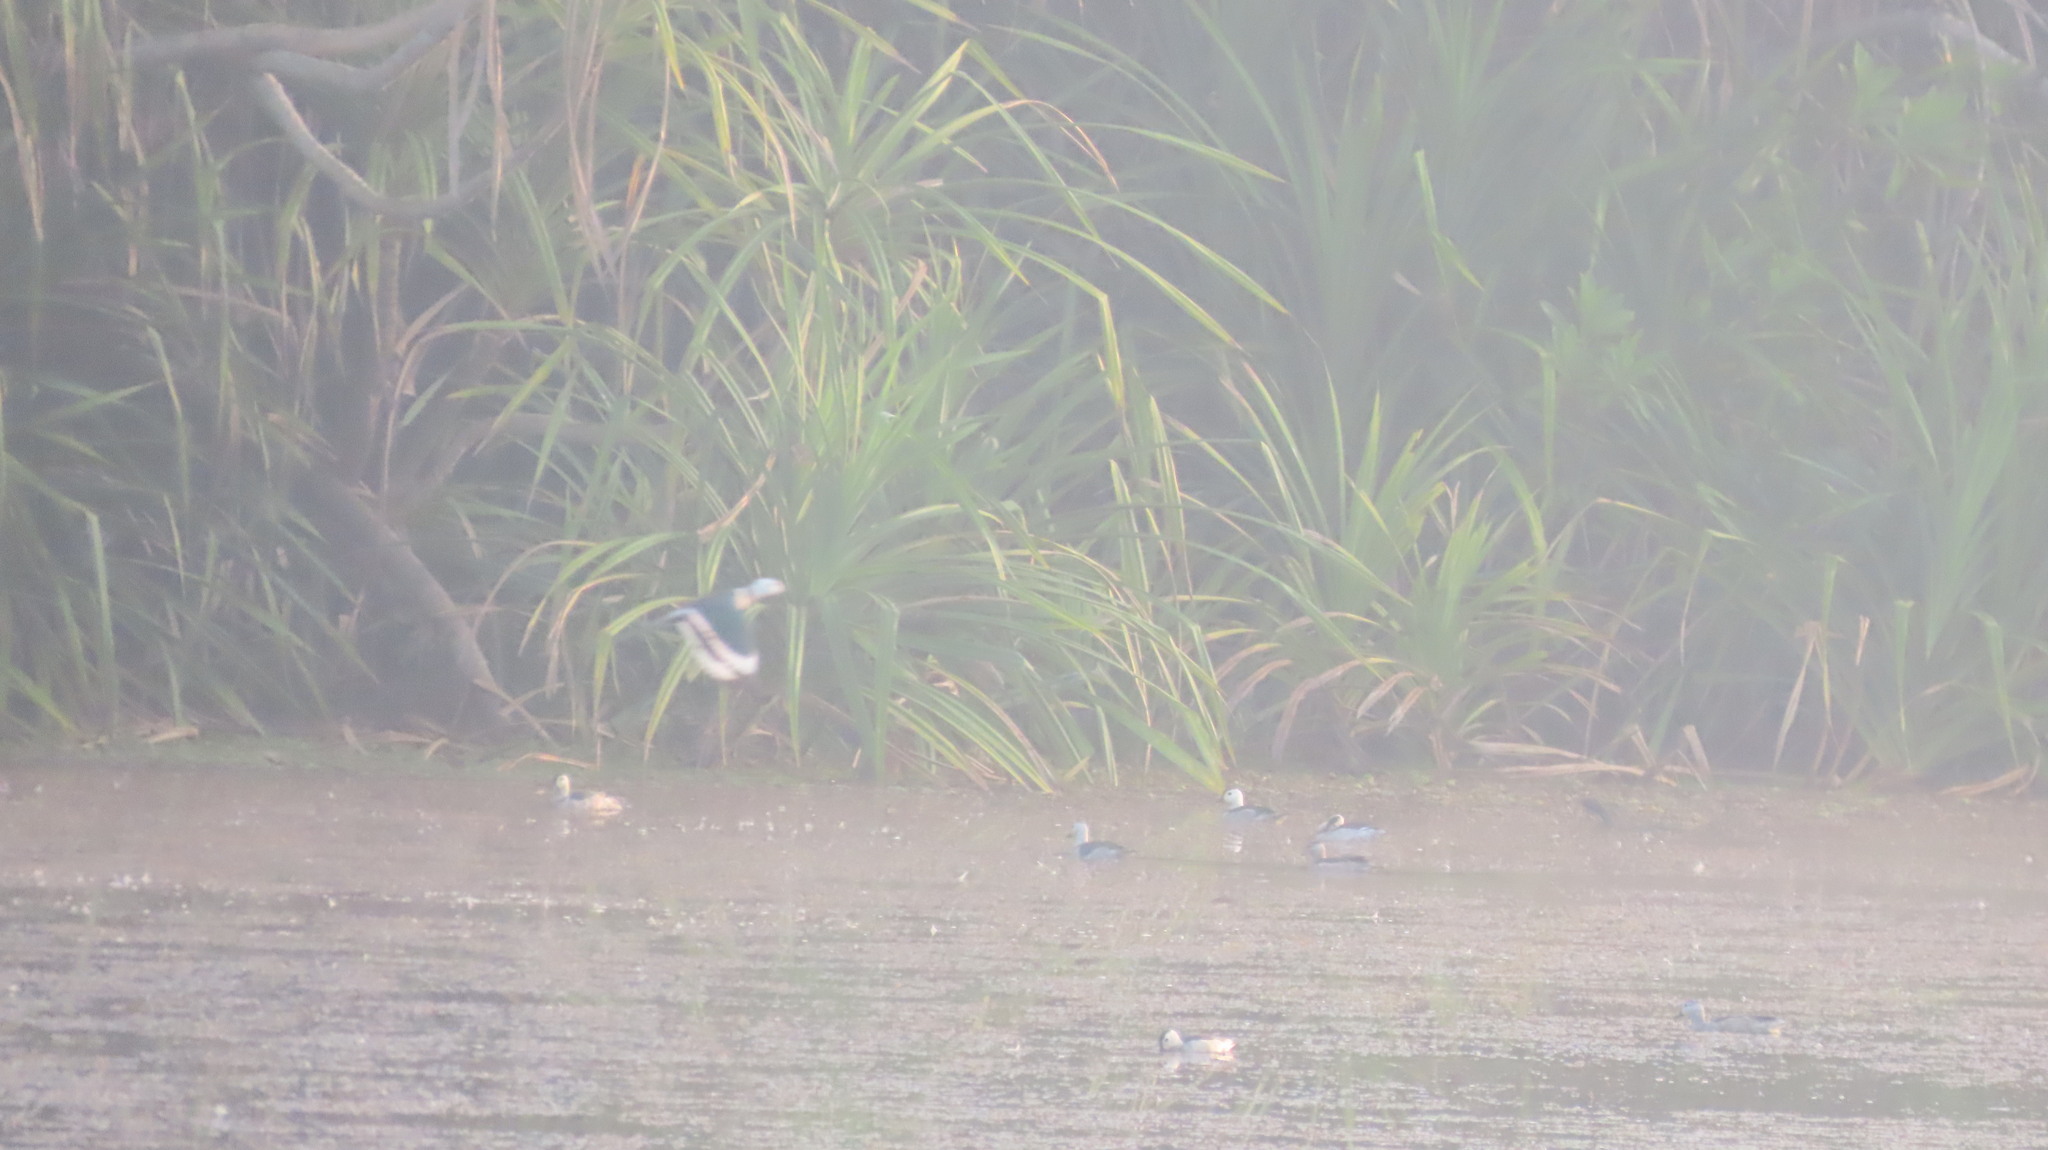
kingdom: Animalia
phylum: Chordata
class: Aves
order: Anseriformes
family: Anatidae
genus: Nettapus
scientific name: Nettapus coromandelianus
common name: Cotton pygmy-goose
